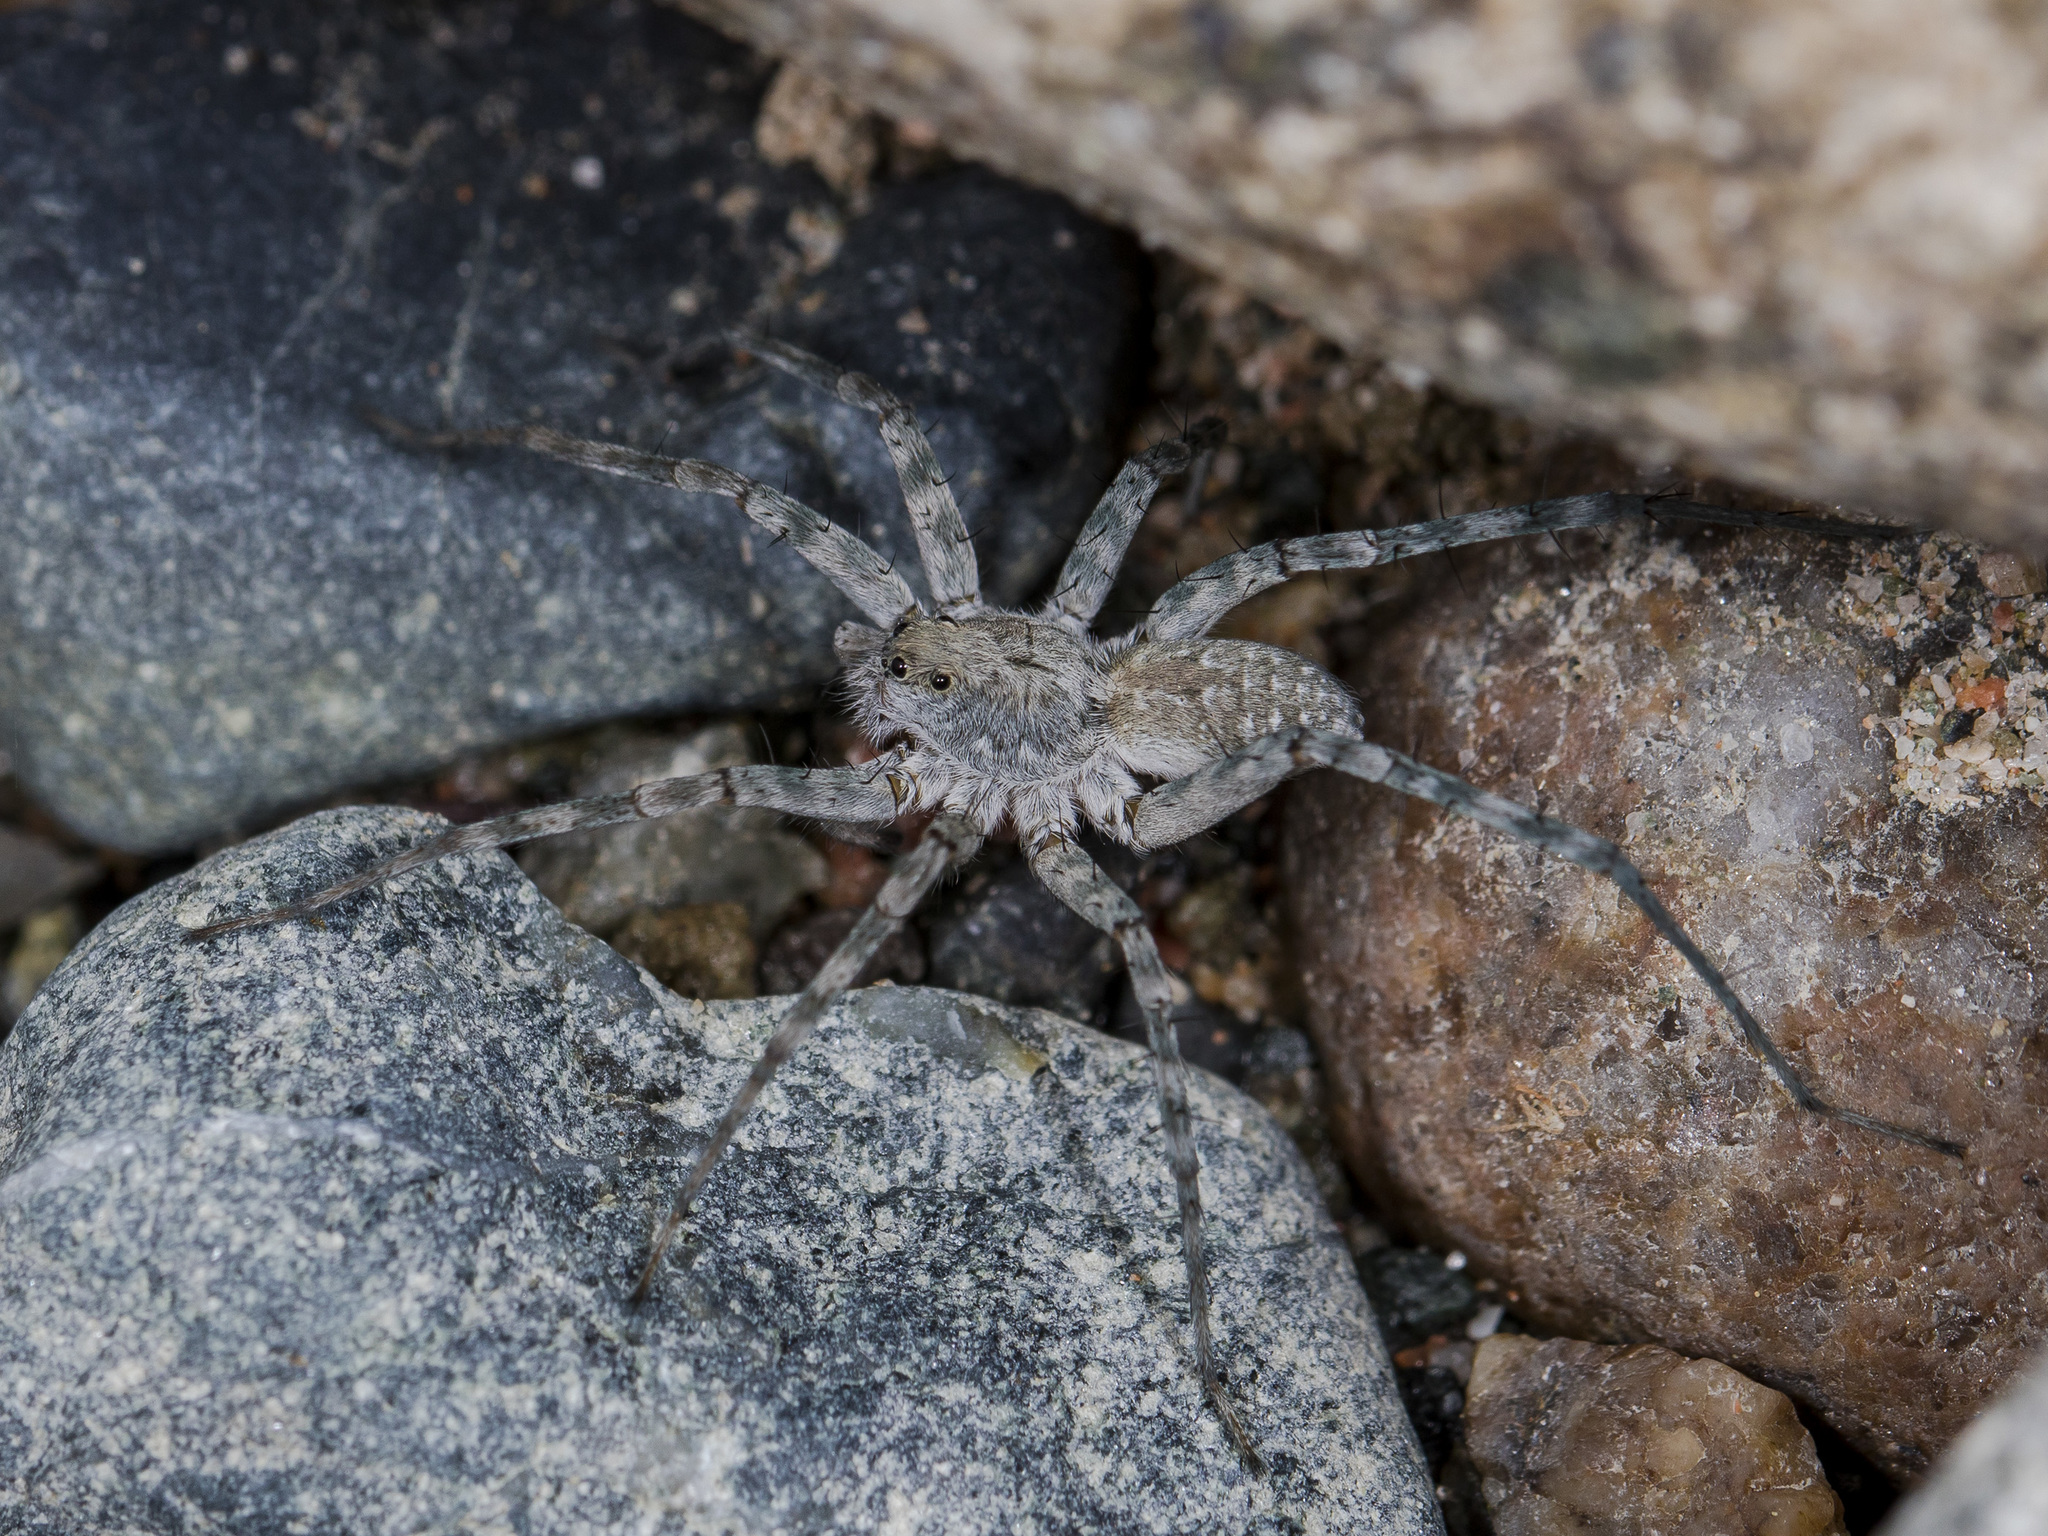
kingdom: Animalia
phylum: Arthropoda
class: Arachnida
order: Araneae
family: Lycosidae
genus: Pardosa
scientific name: Pardosa falcata
